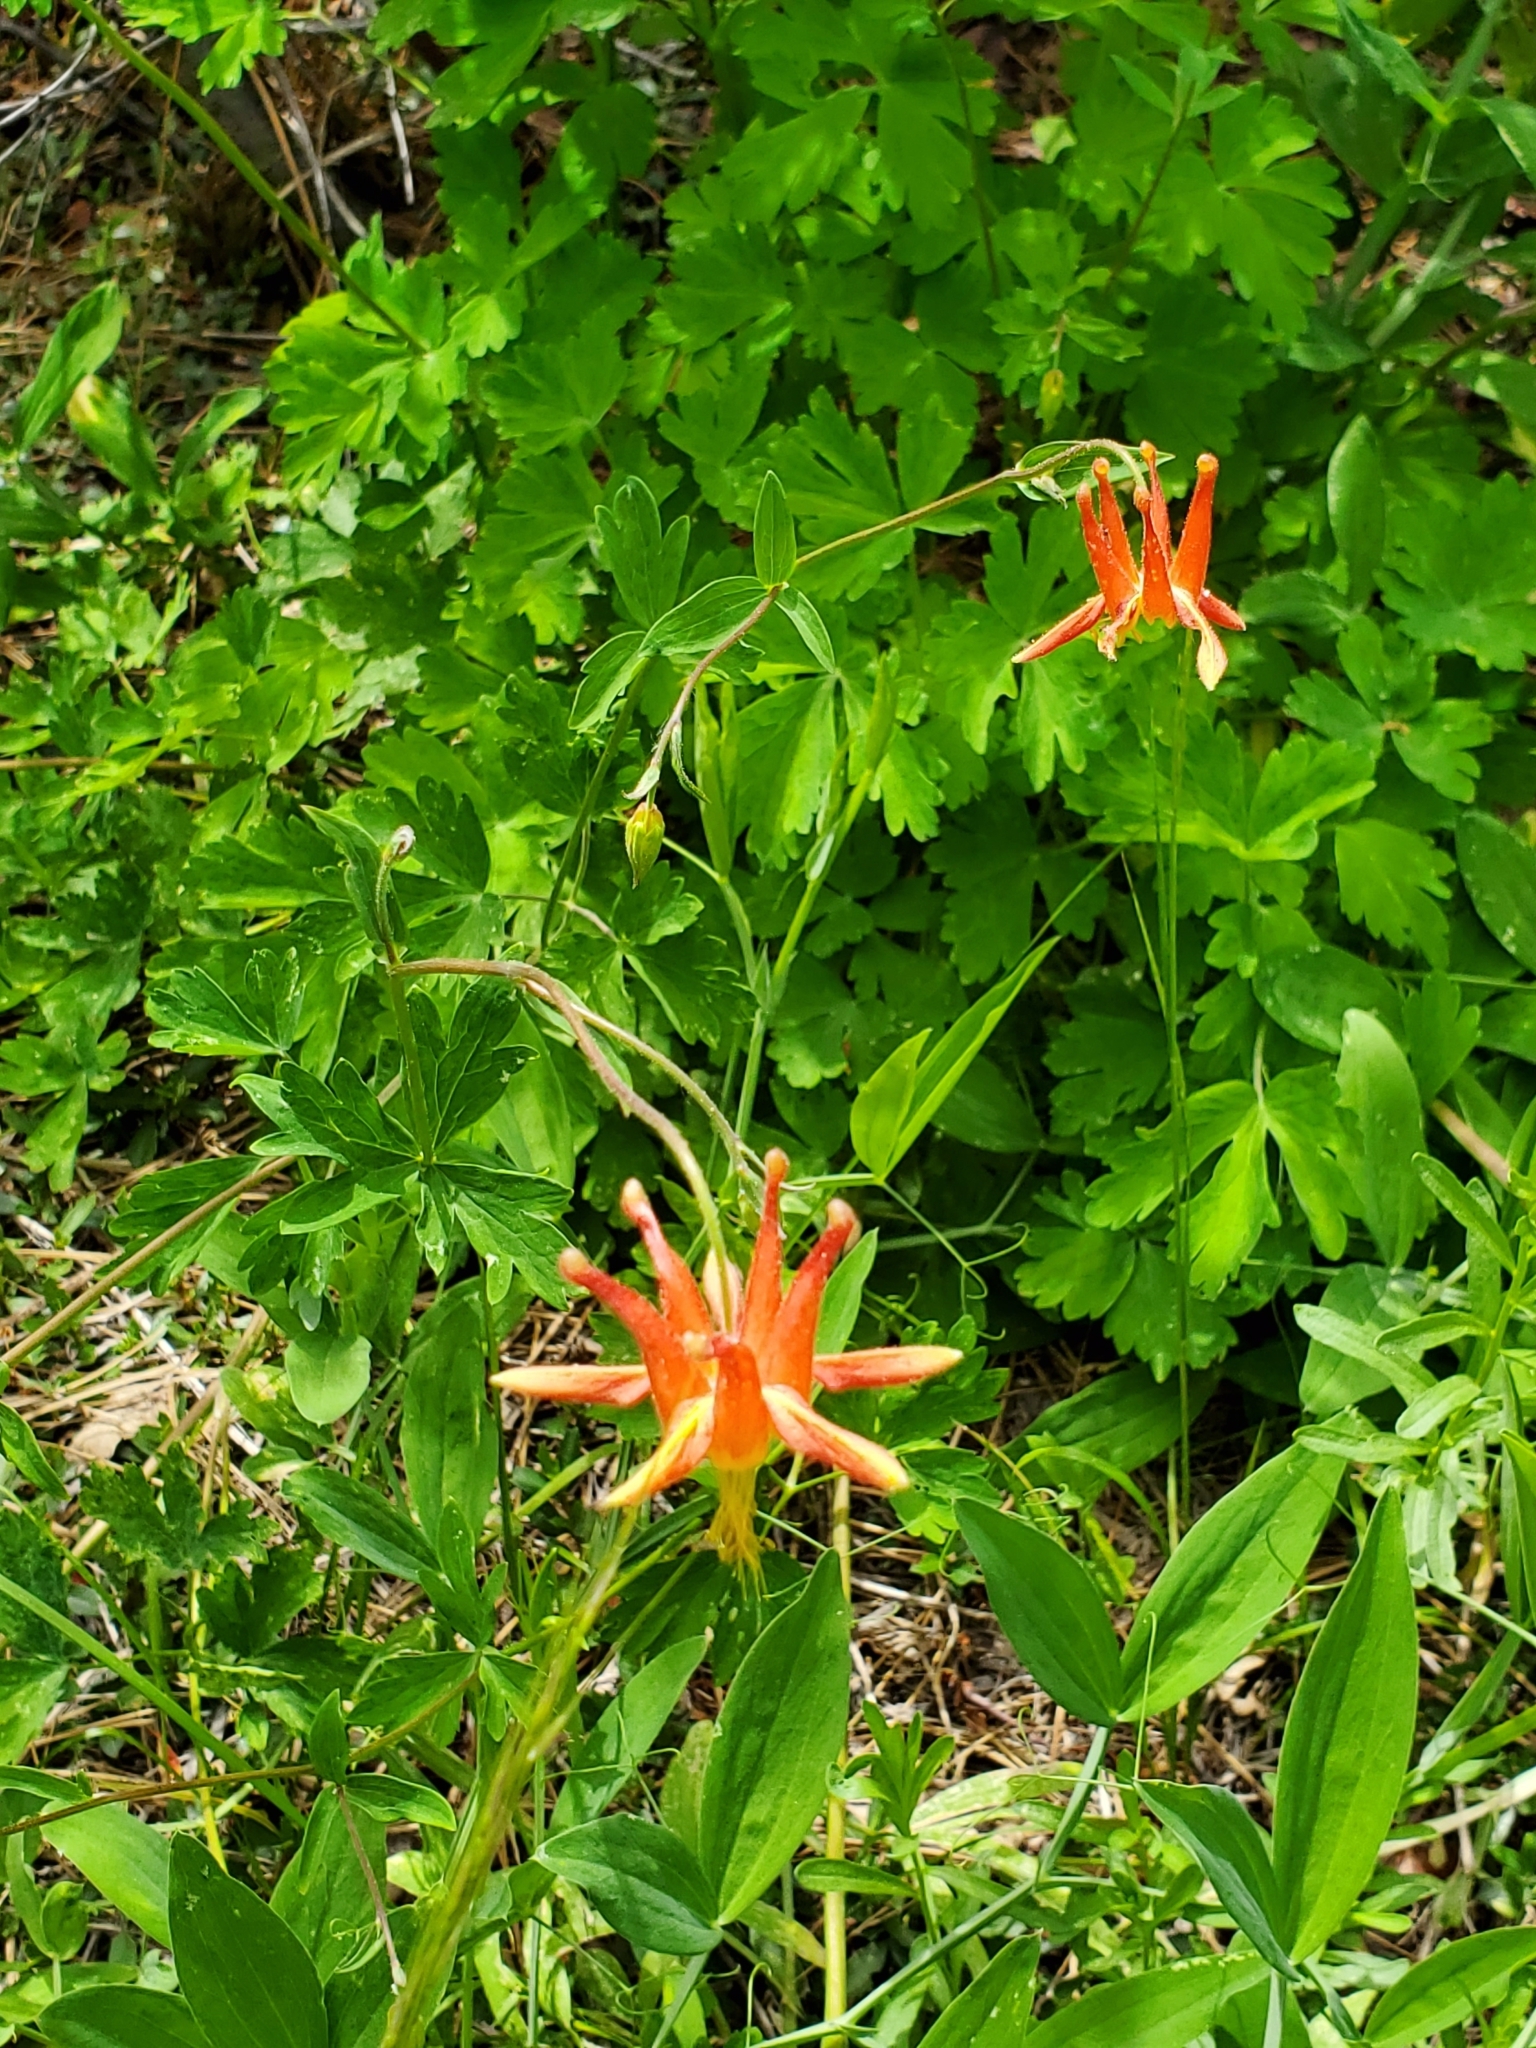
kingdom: Plantae
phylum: Tracheophyta
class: Magnoliopsida
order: Ranunculales
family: Ranunculaceae
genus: Aquilegia
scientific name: Aquilegia formosa
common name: Sitka columbine
